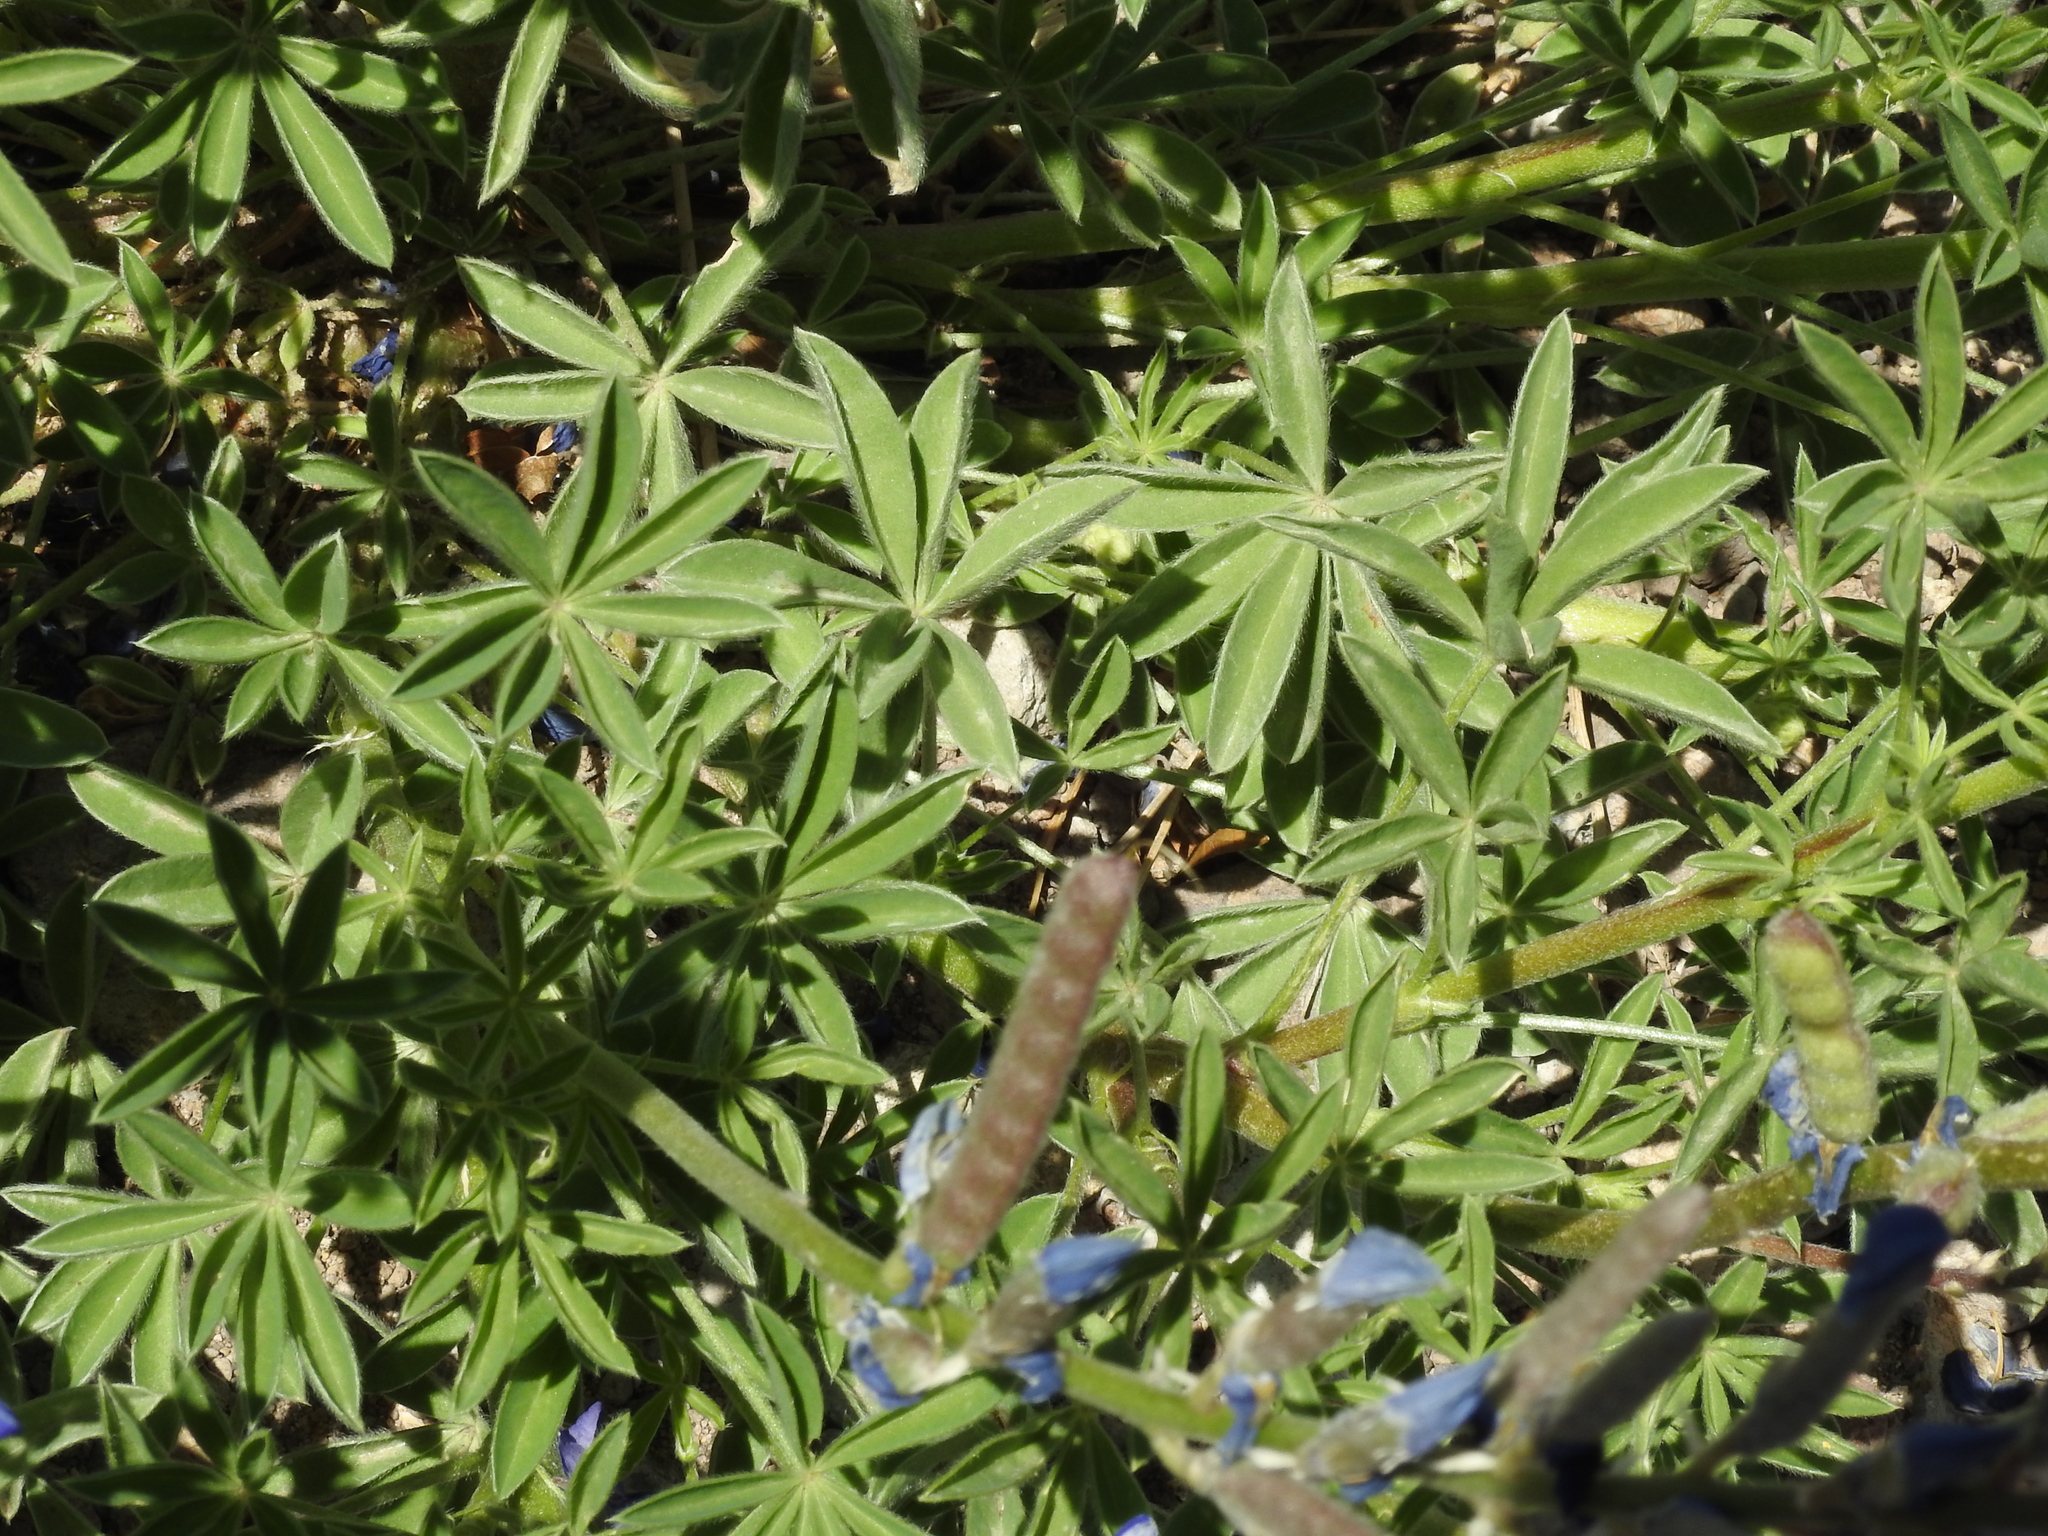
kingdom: Plantae
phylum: Tracheophyta
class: Magnoliopsida
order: Fabales
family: Fabaceae
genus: Lupinus
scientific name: Lupinus havardii
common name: Chisos bluebonnet
